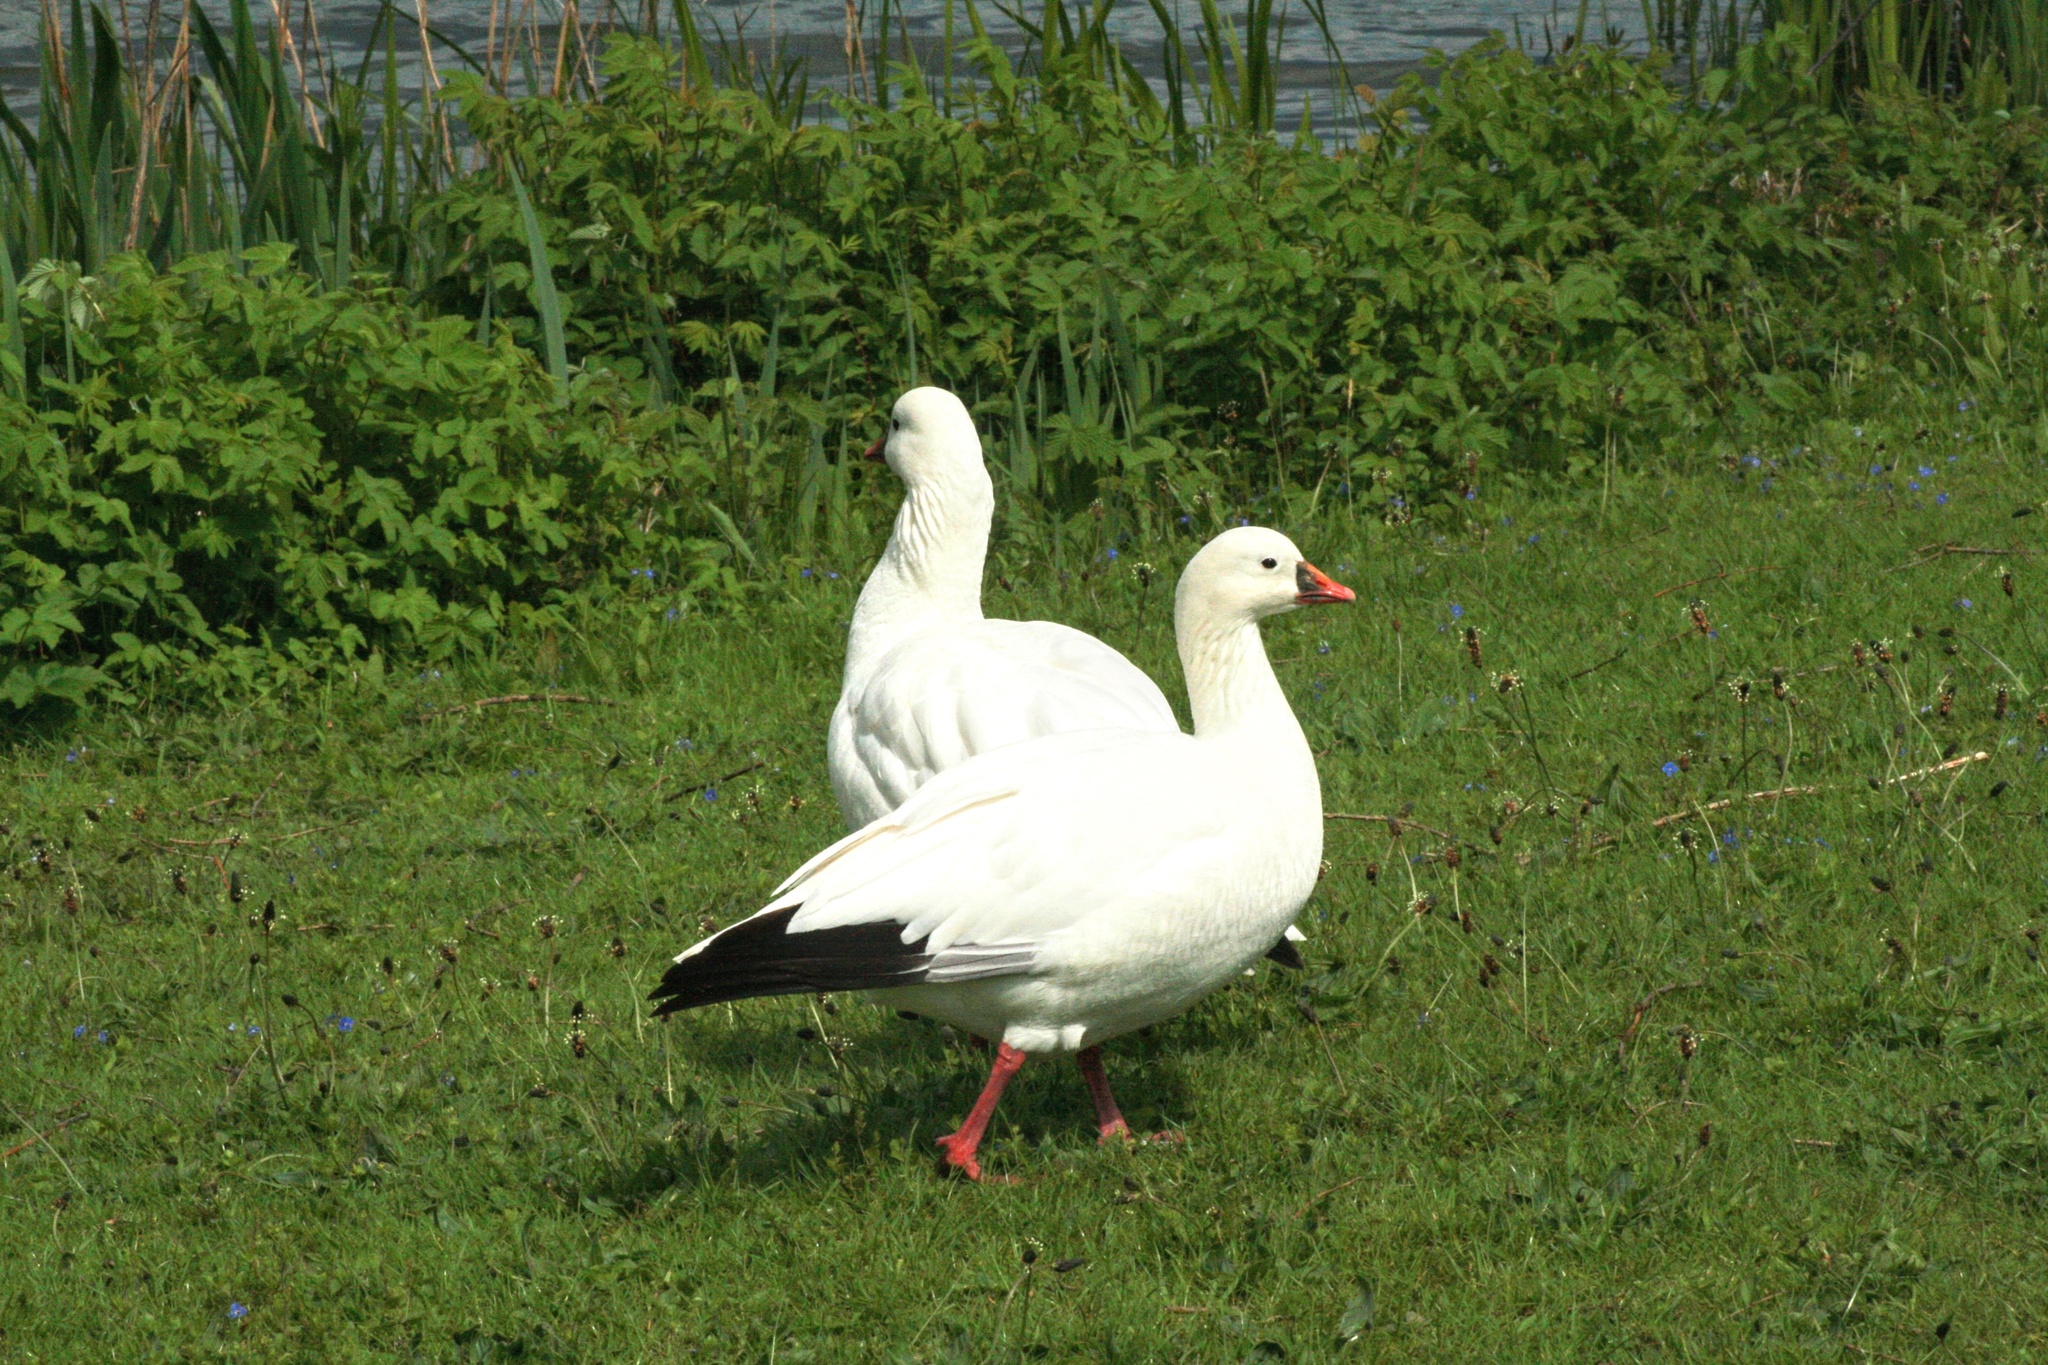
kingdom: Animalia
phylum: Chordata
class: Aves
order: Anseriformes
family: Anatidae
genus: Anser
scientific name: Anser rossii
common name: Ross's goose
